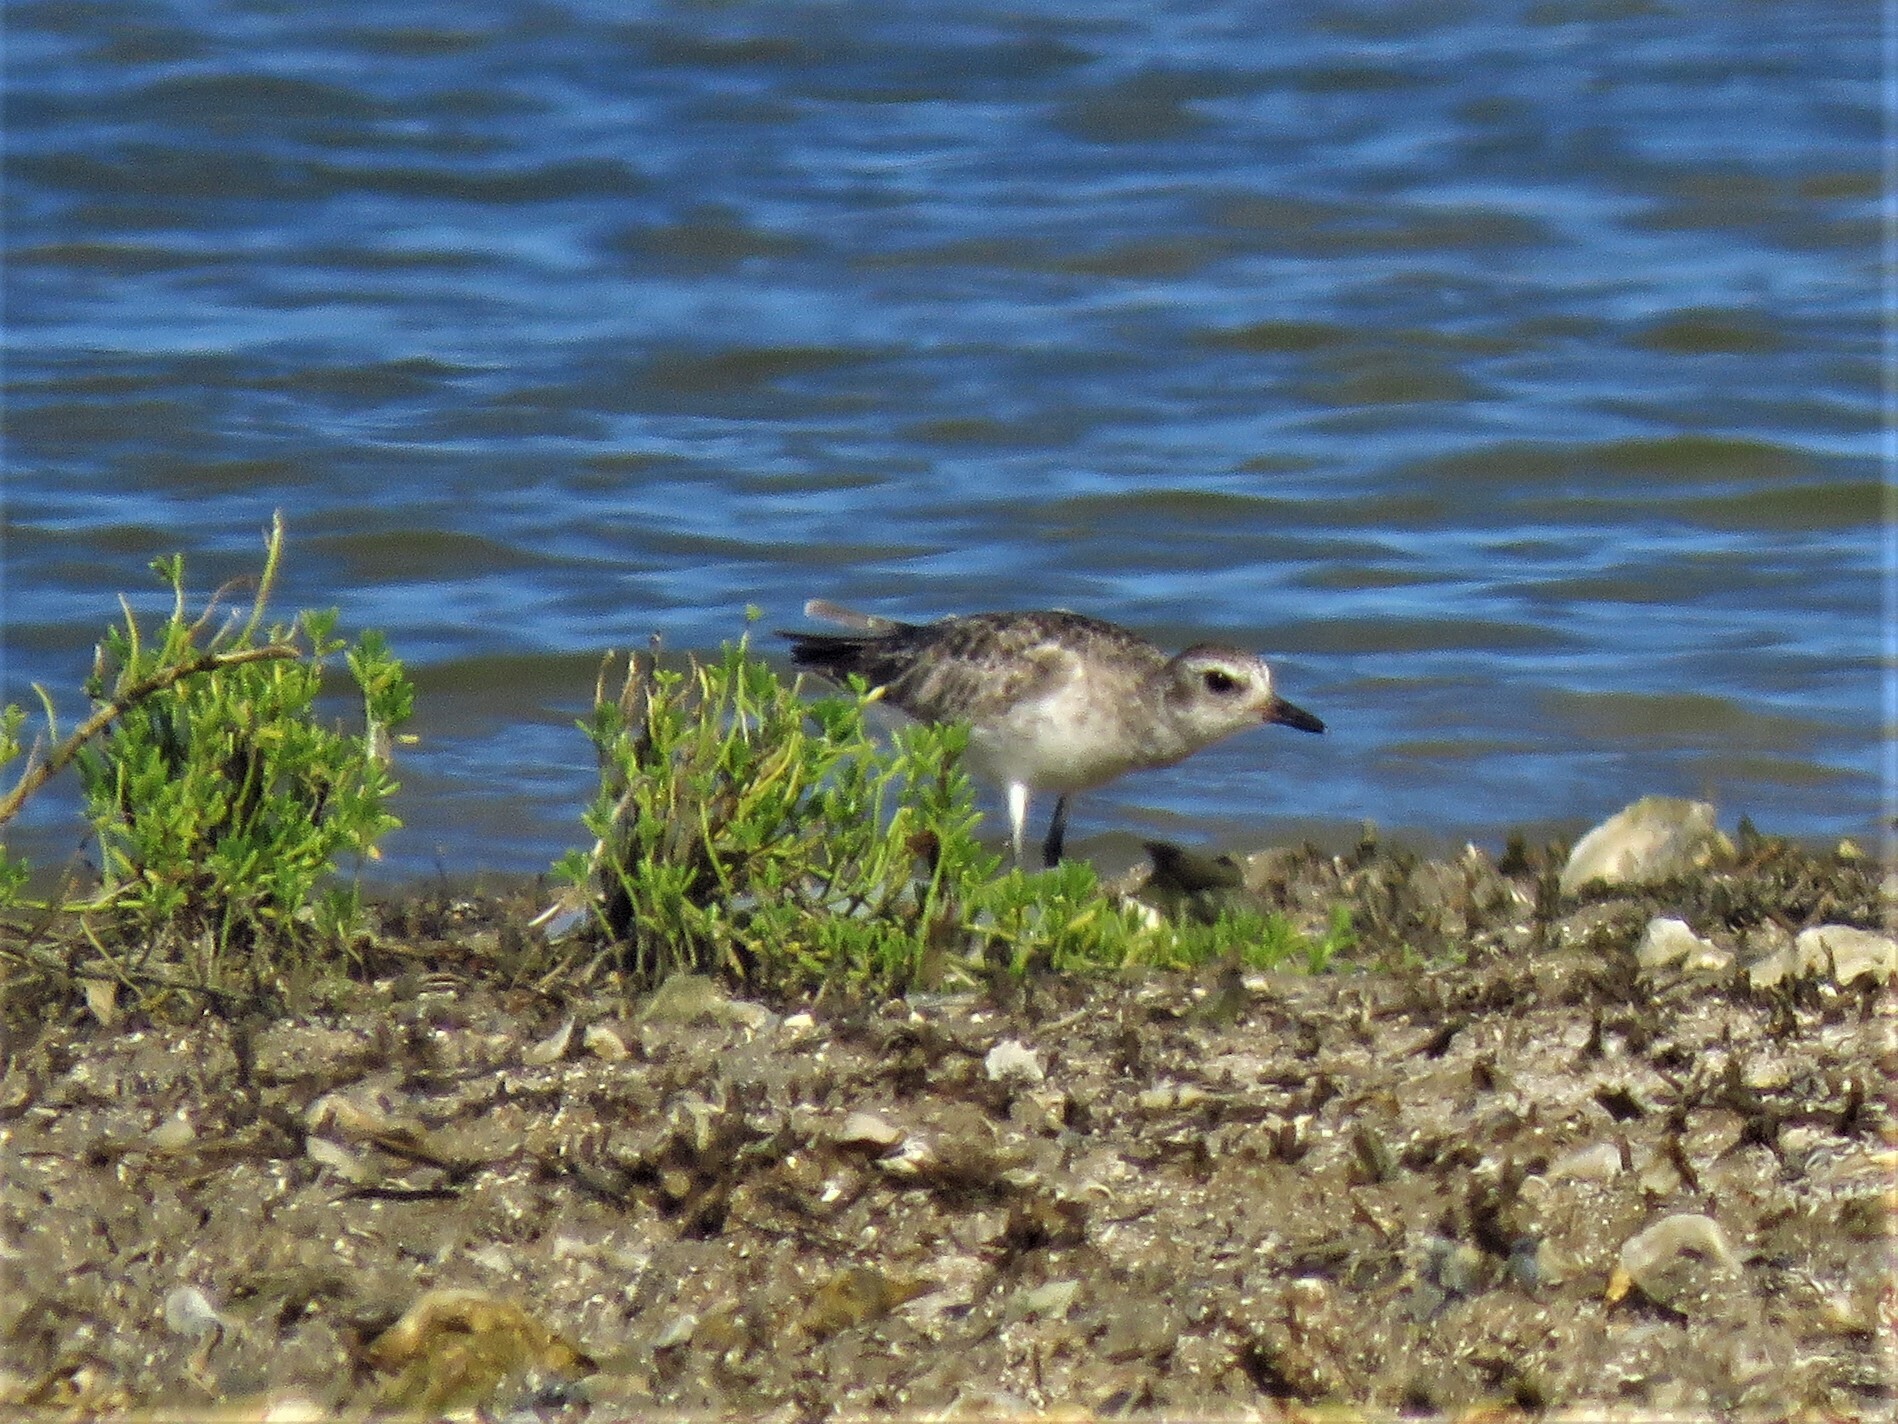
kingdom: Animalia
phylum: Chordata
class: Aves
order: Charadriiformes
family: Charadriidae
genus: Pluvialis
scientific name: Pluvialis squatarola
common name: Grey plover
